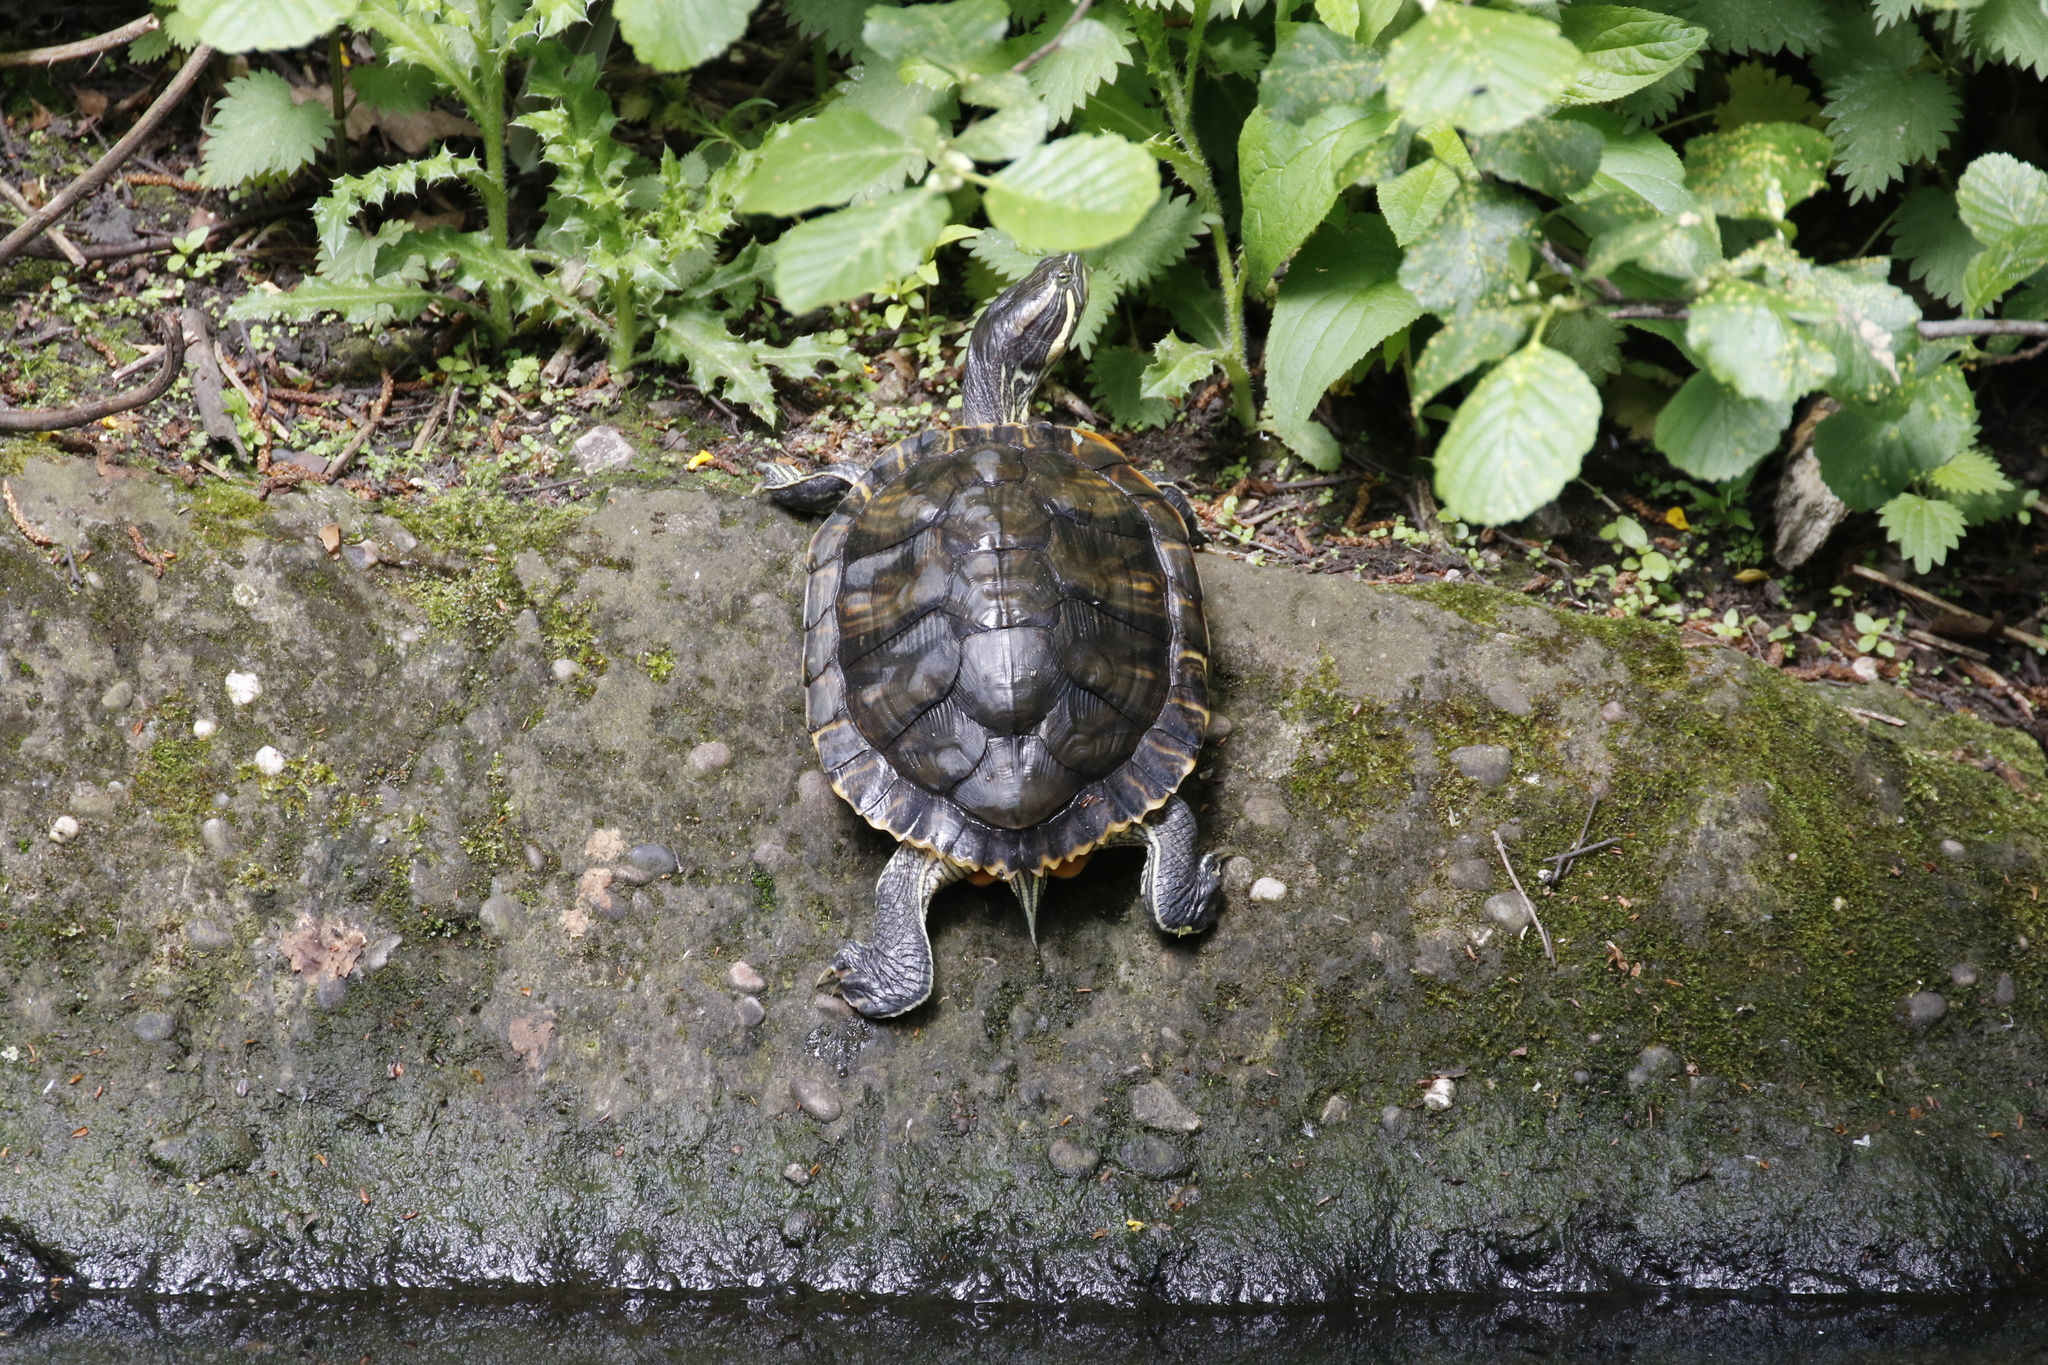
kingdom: Animalia
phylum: Chordata
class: Testudines
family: Emydidae
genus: Trachemys
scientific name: Trachemys scripta
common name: Slider
